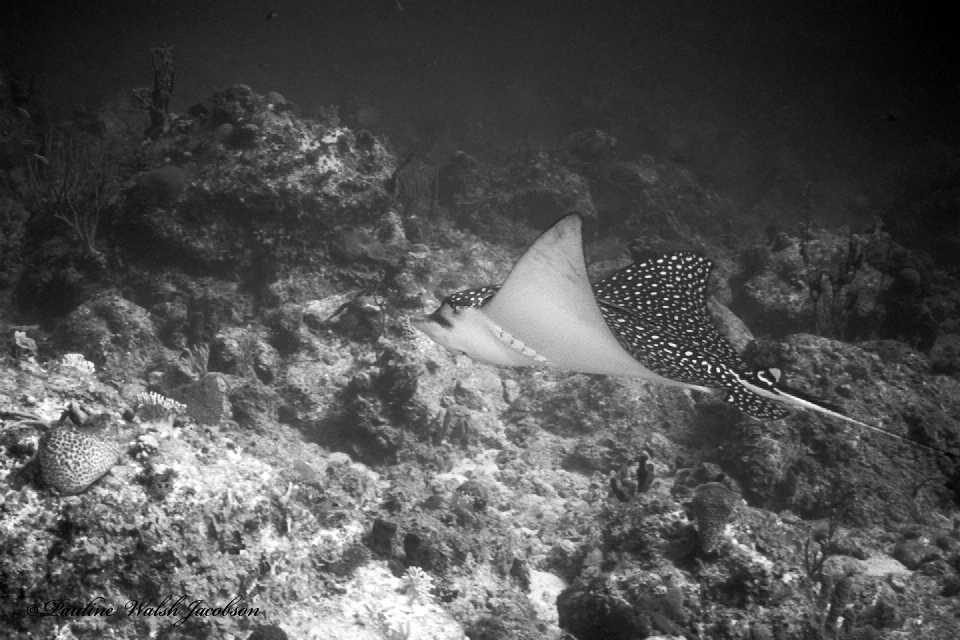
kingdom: Animalia
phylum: Chordata
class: Elasmobranchii
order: Myliobatiformes
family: Myliobatidae
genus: Aetobatus
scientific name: Aetobatus narinari
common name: Spotted eagle ray
